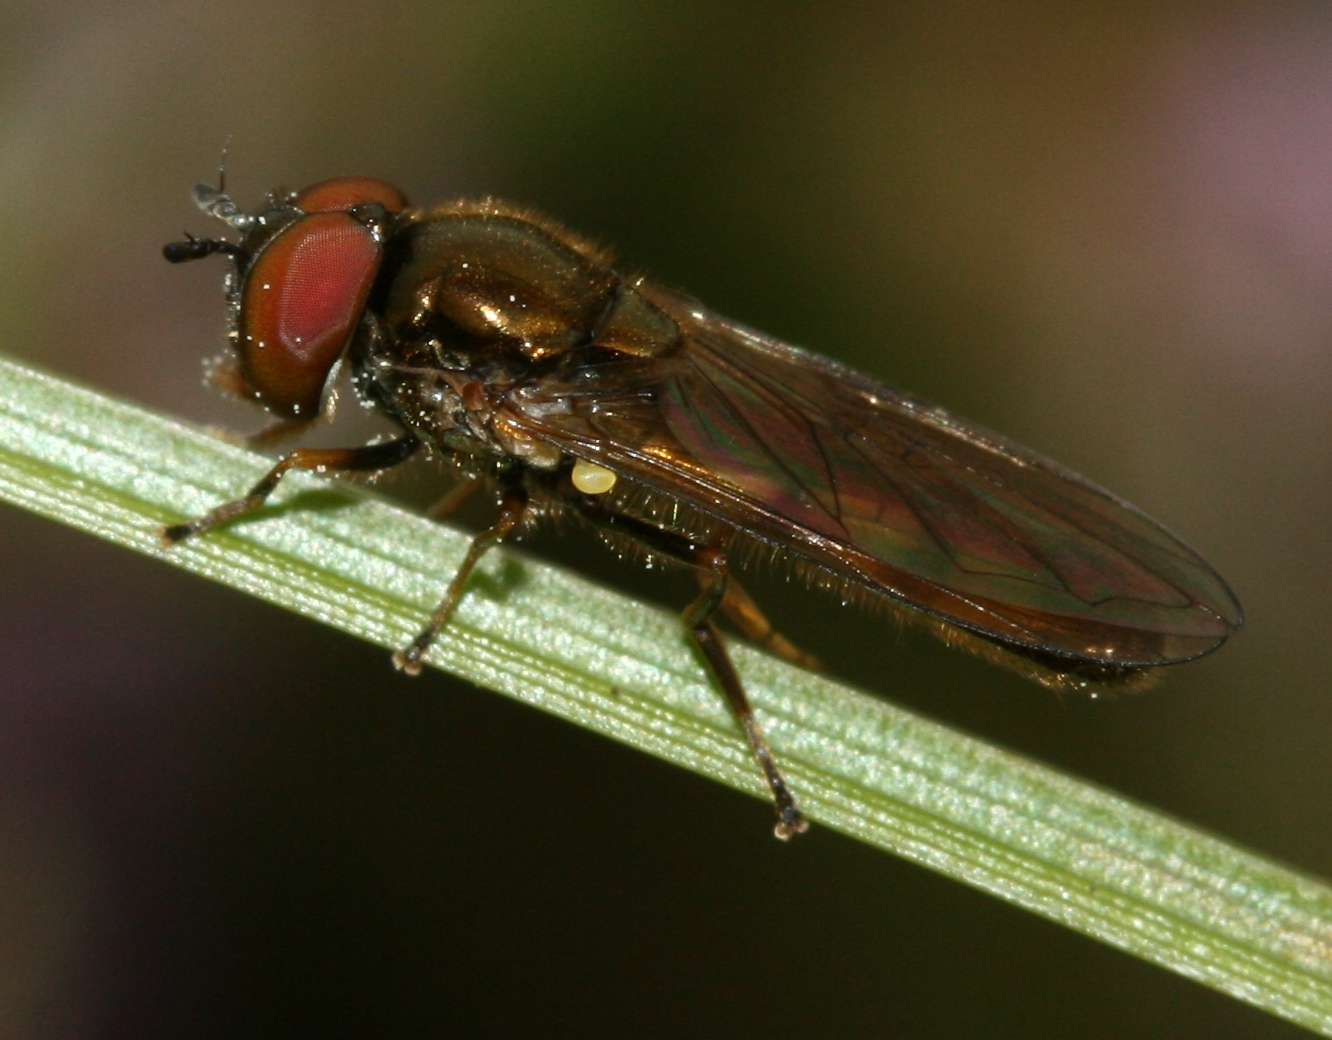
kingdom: Animalia
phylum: Arthropoda
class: Insecta
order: Diptera
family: Syrphidae
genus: Melanostoma
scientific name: Melanostoma mellina
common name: Hover fly
